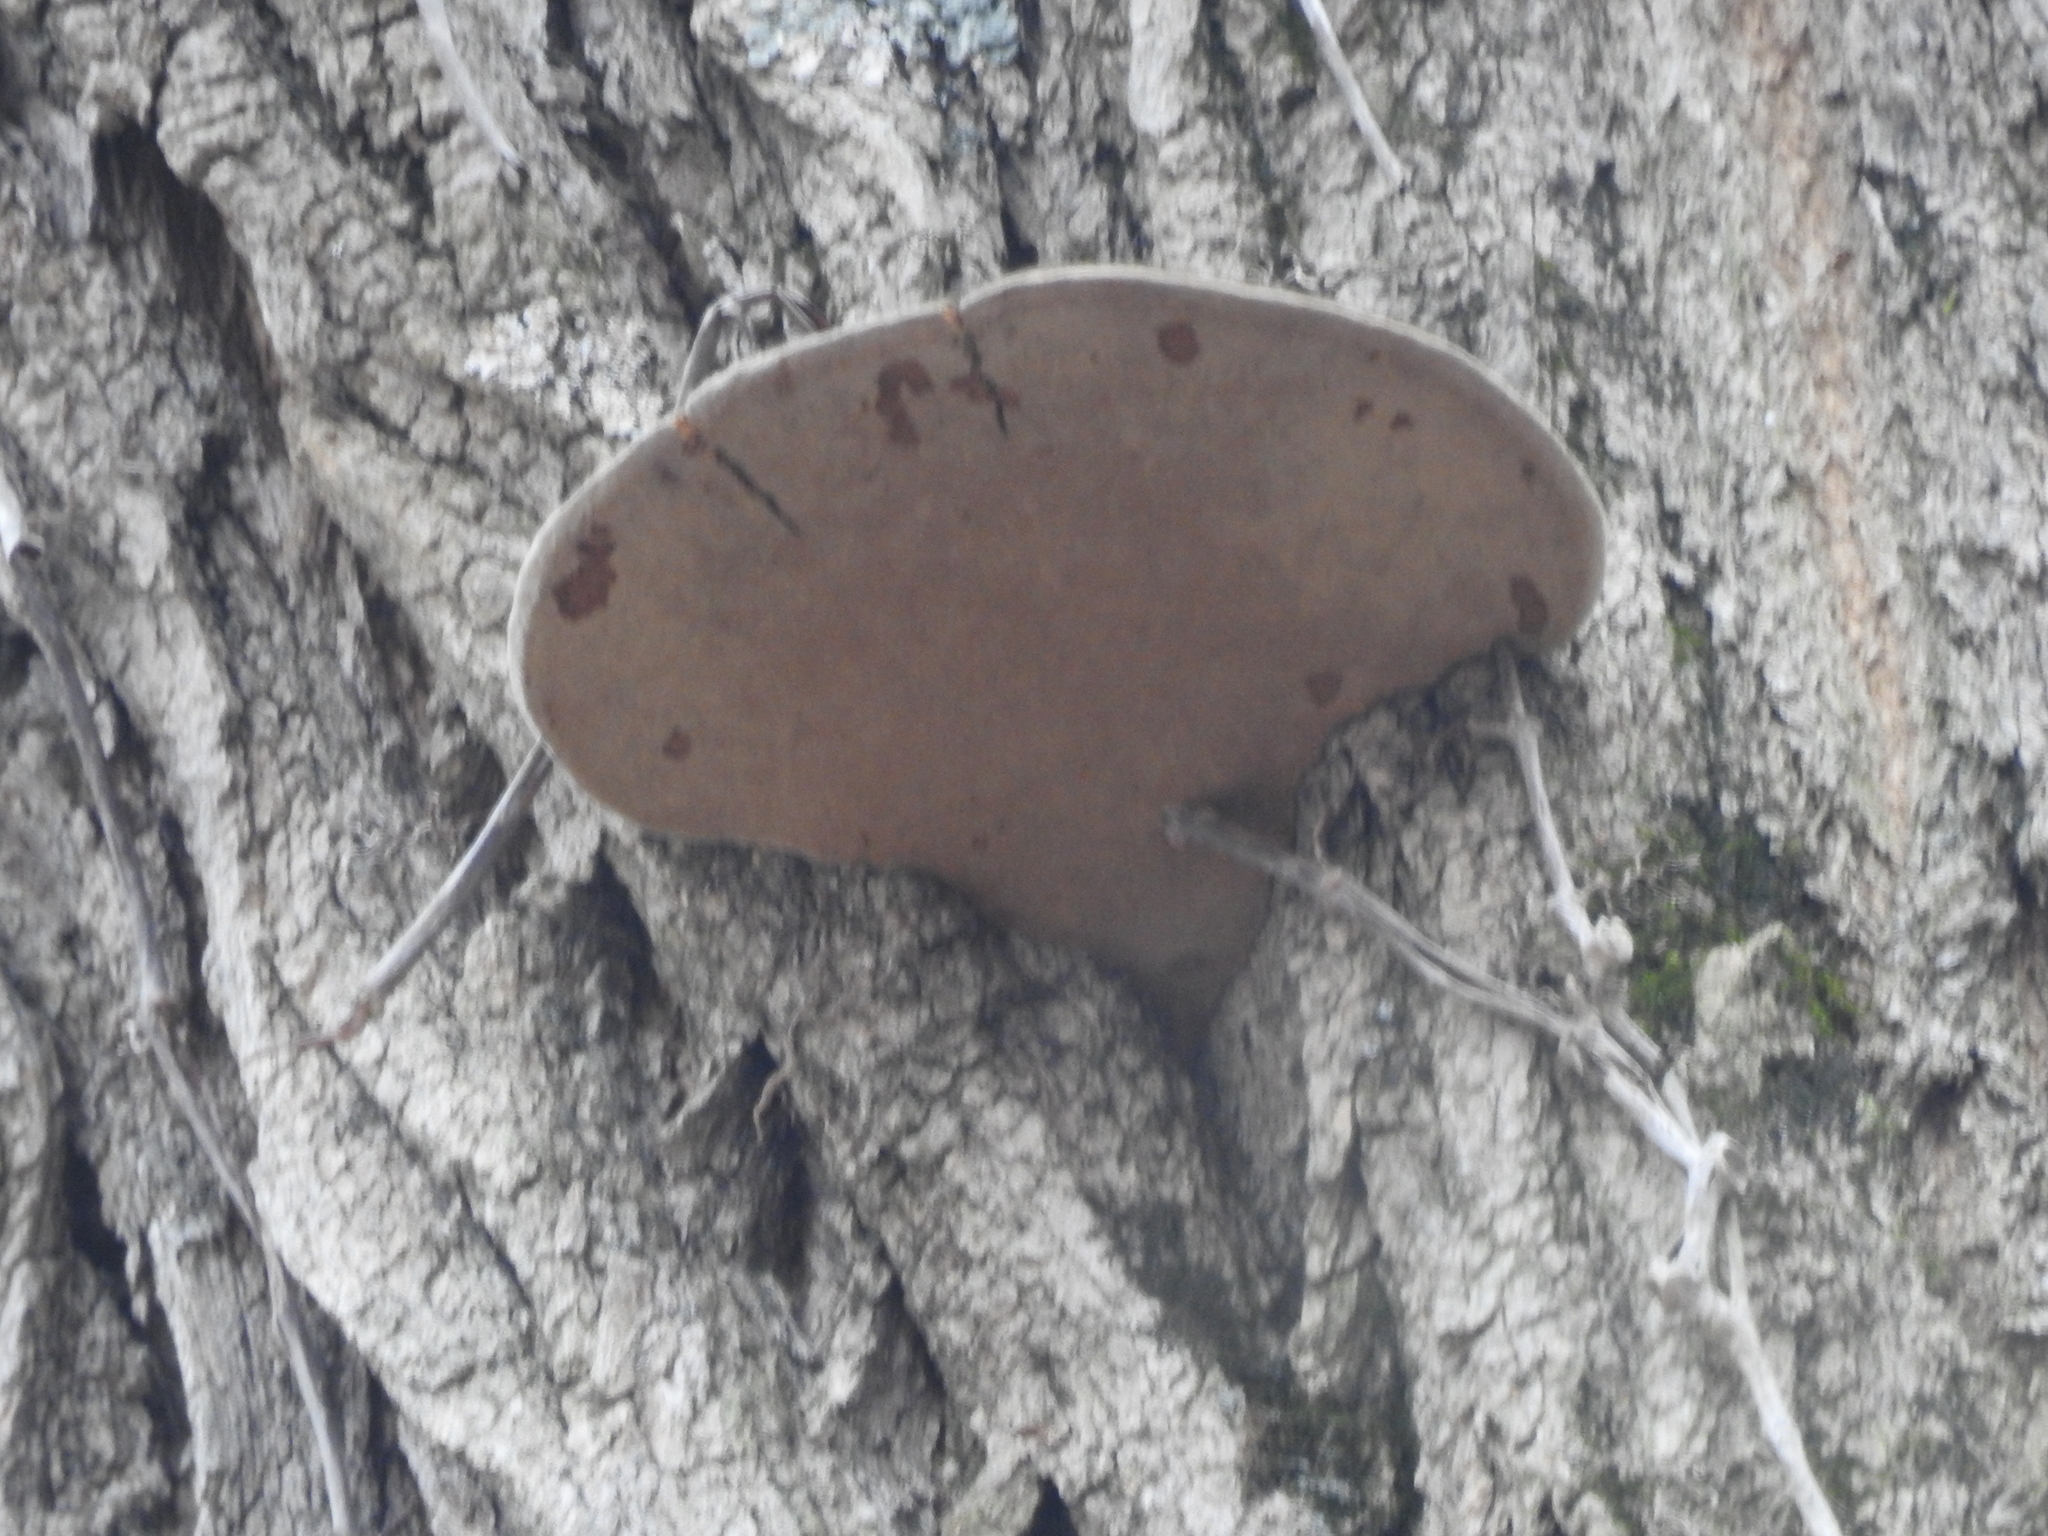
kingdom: Fungi
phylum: Basidiomycota
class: Agaricomycetes
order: Hymenochaetales
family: Hymenochaetaceae
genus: Phellinus
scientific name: Phellinus robiniae
